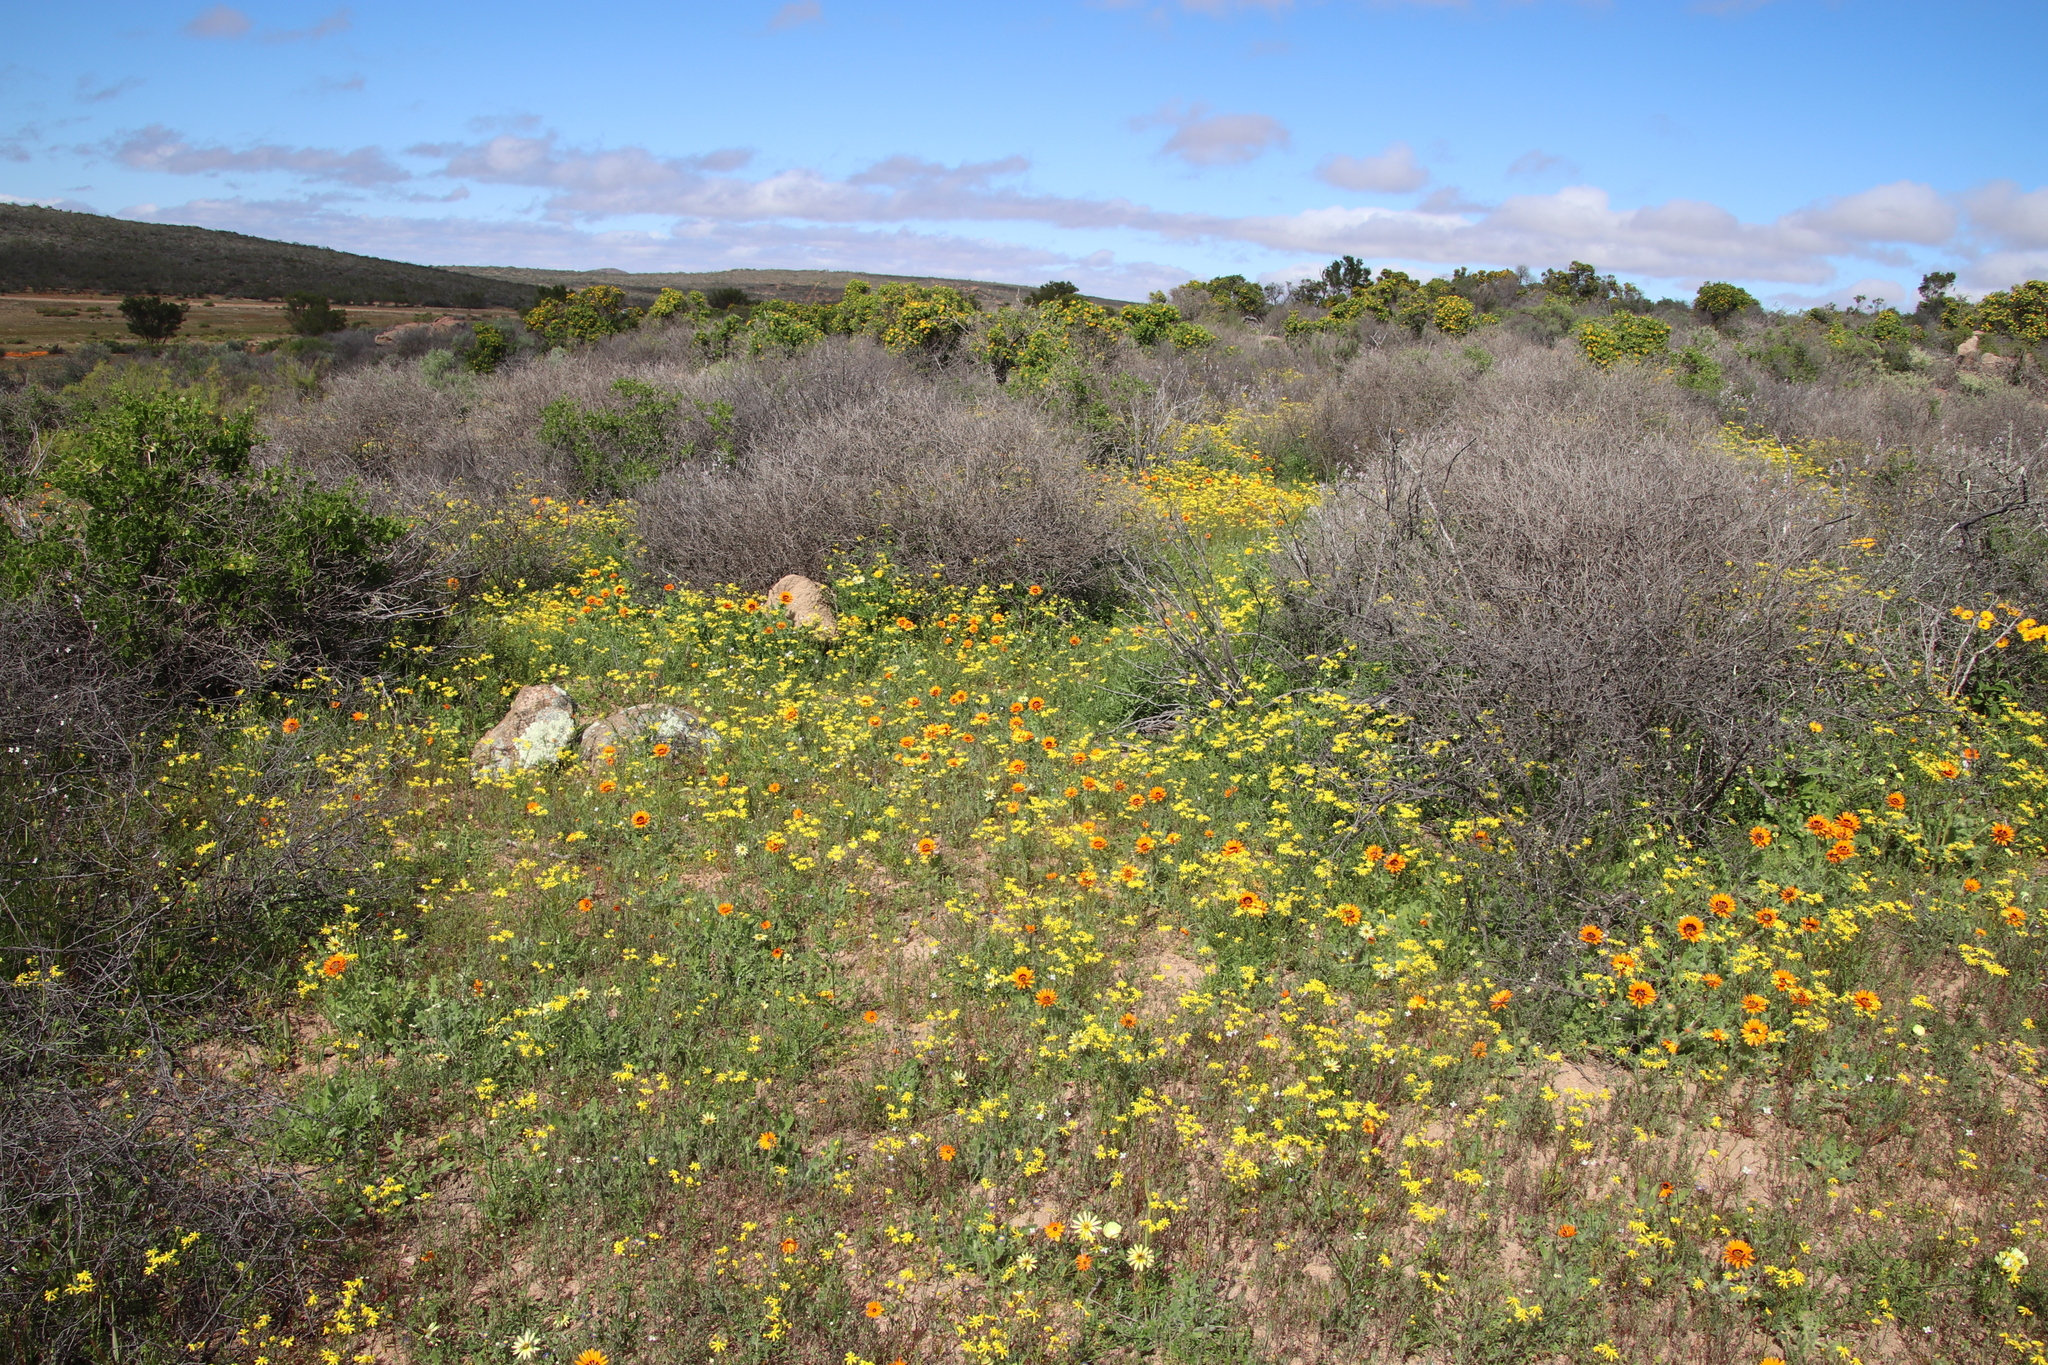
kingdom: Plantae
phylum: Tracheophyta
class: Magnoliopsida
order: Asterales
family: Asteraceae
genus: Senecio
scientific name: Senecio abruptus
